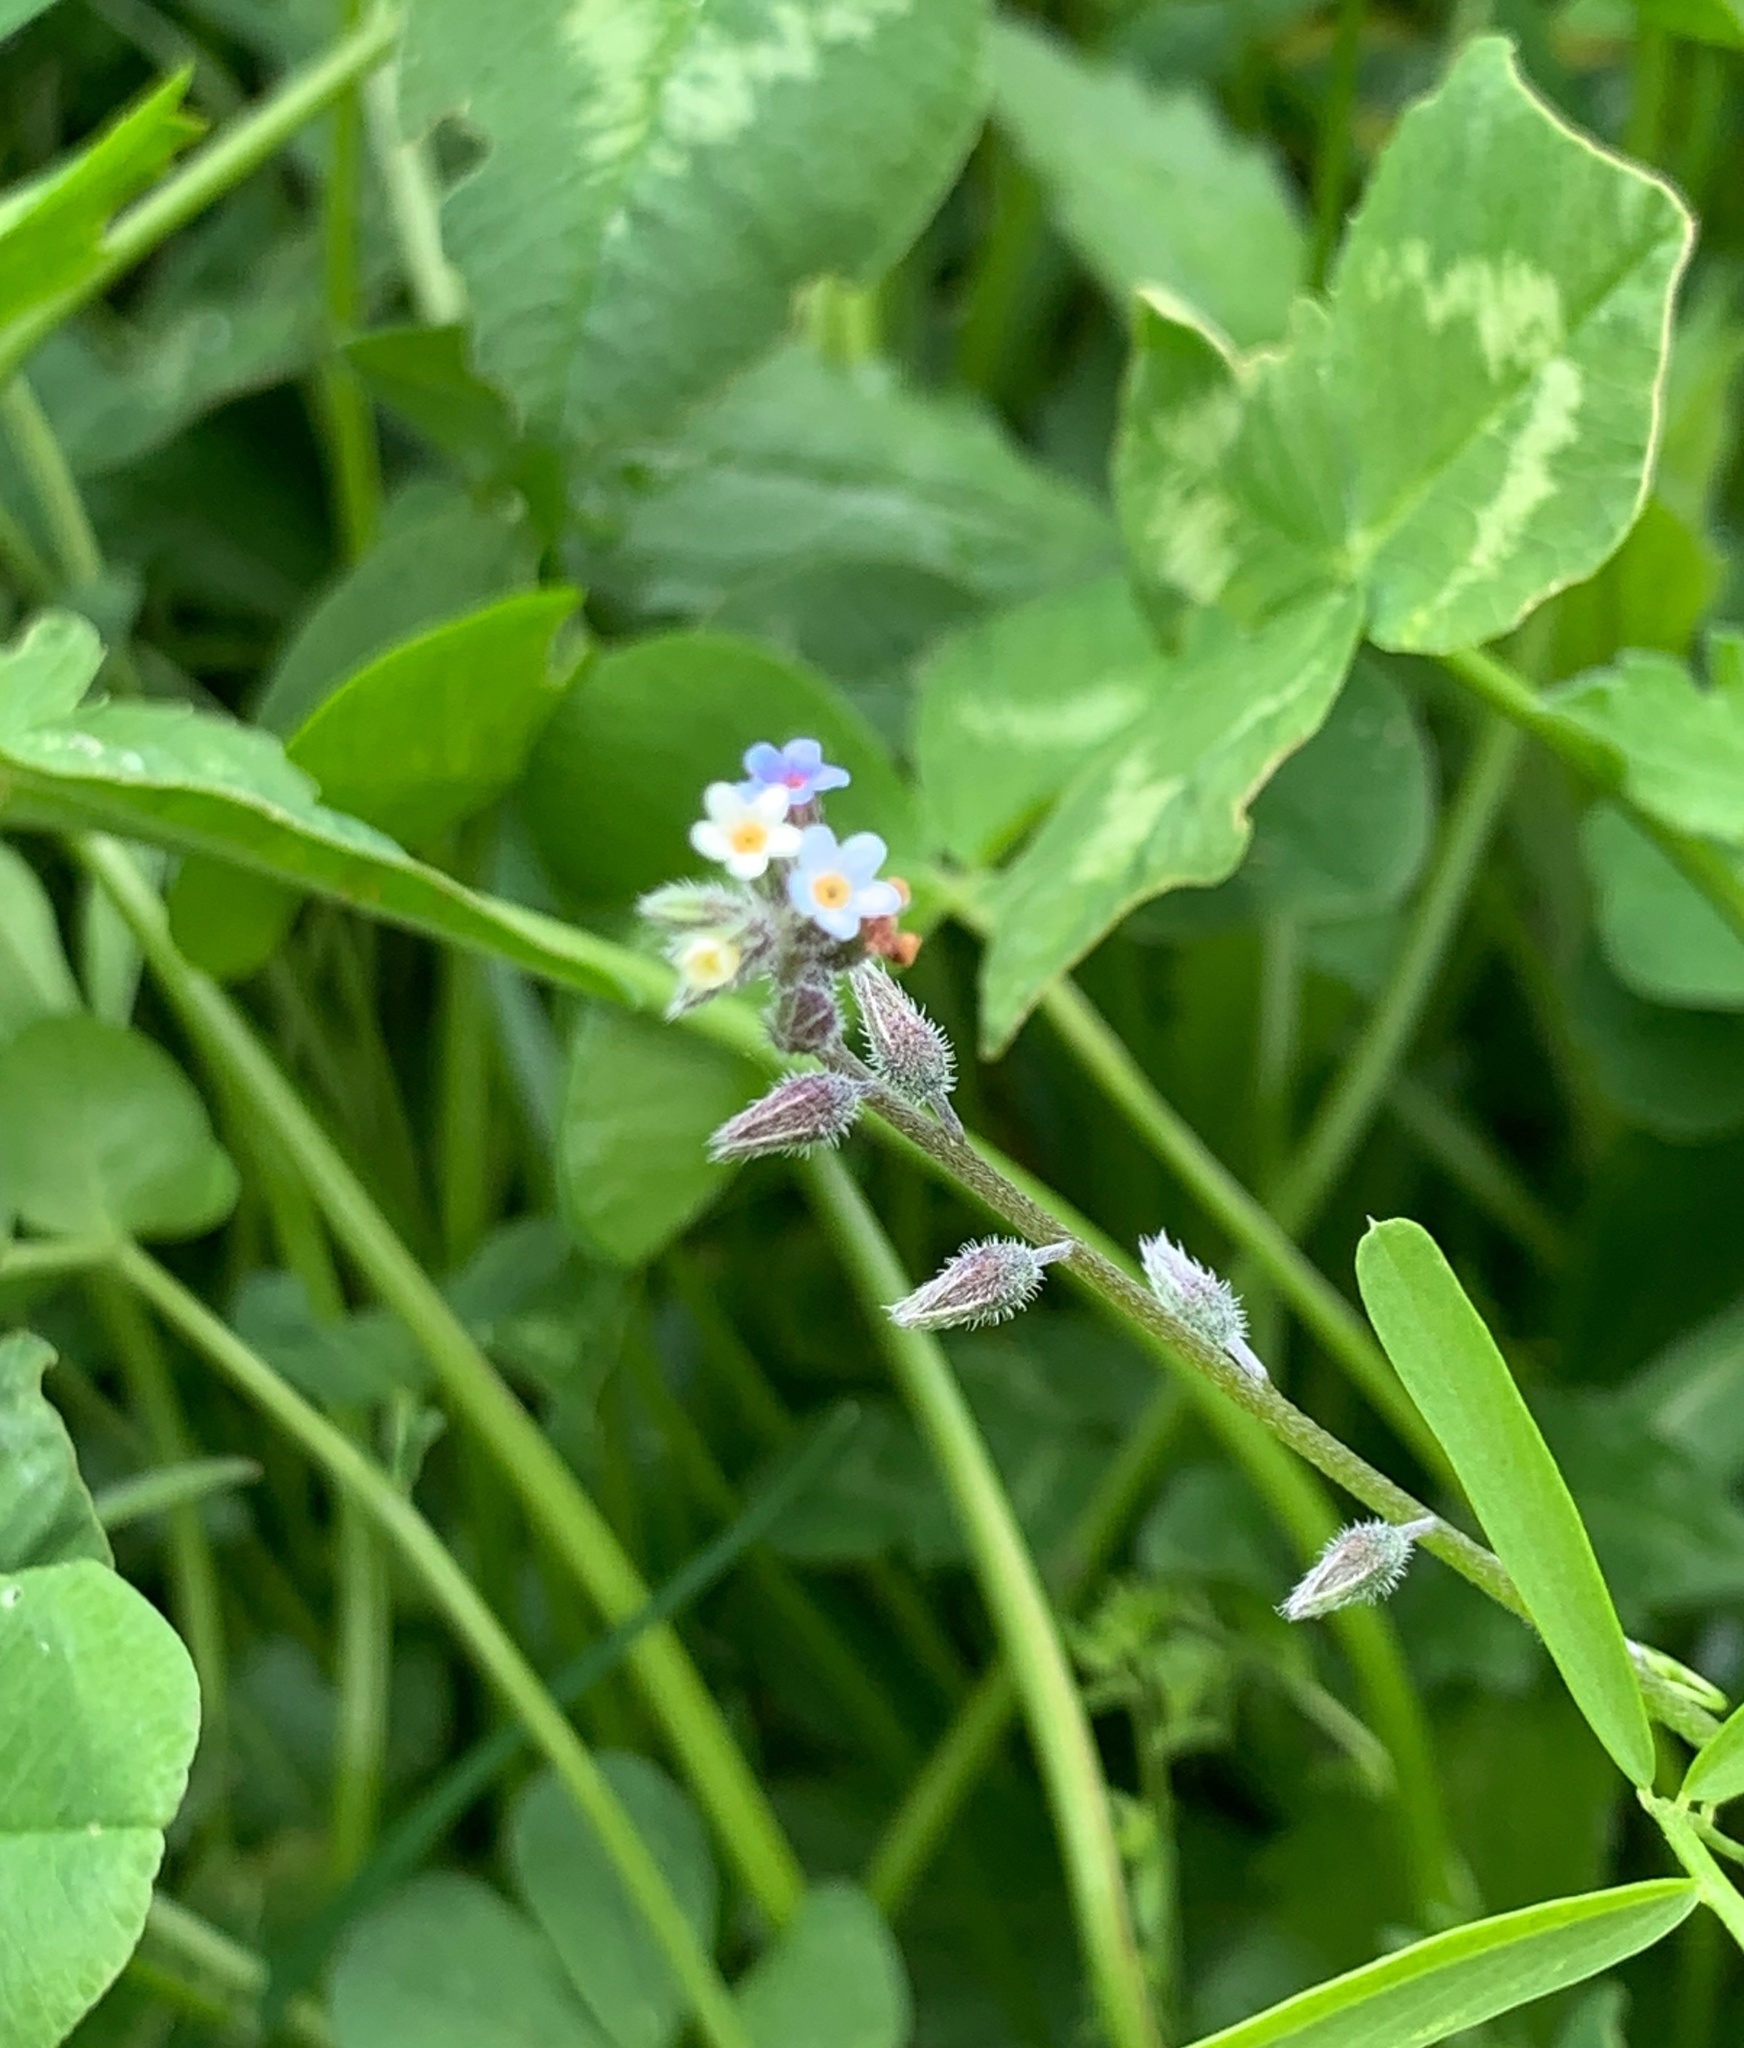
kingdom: Plantae
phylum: Tracheophyta
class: Magnoliopsida
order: Boraginales
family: Boraginaceae
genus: Myosotis
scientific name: Myosotis discolor
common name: Changing forget-me-not
